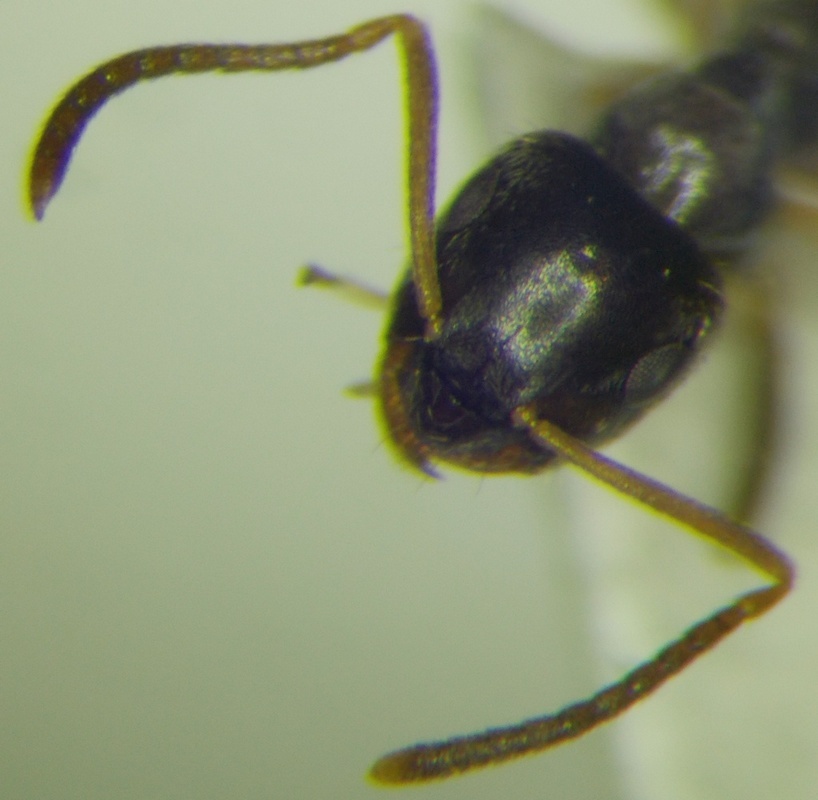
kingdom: Animalia
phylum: Arthropoda
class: Insecta
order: Hymenoptera
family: Formicidae
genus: Lasius
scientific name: Lasius alienus
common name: Alien field ant
